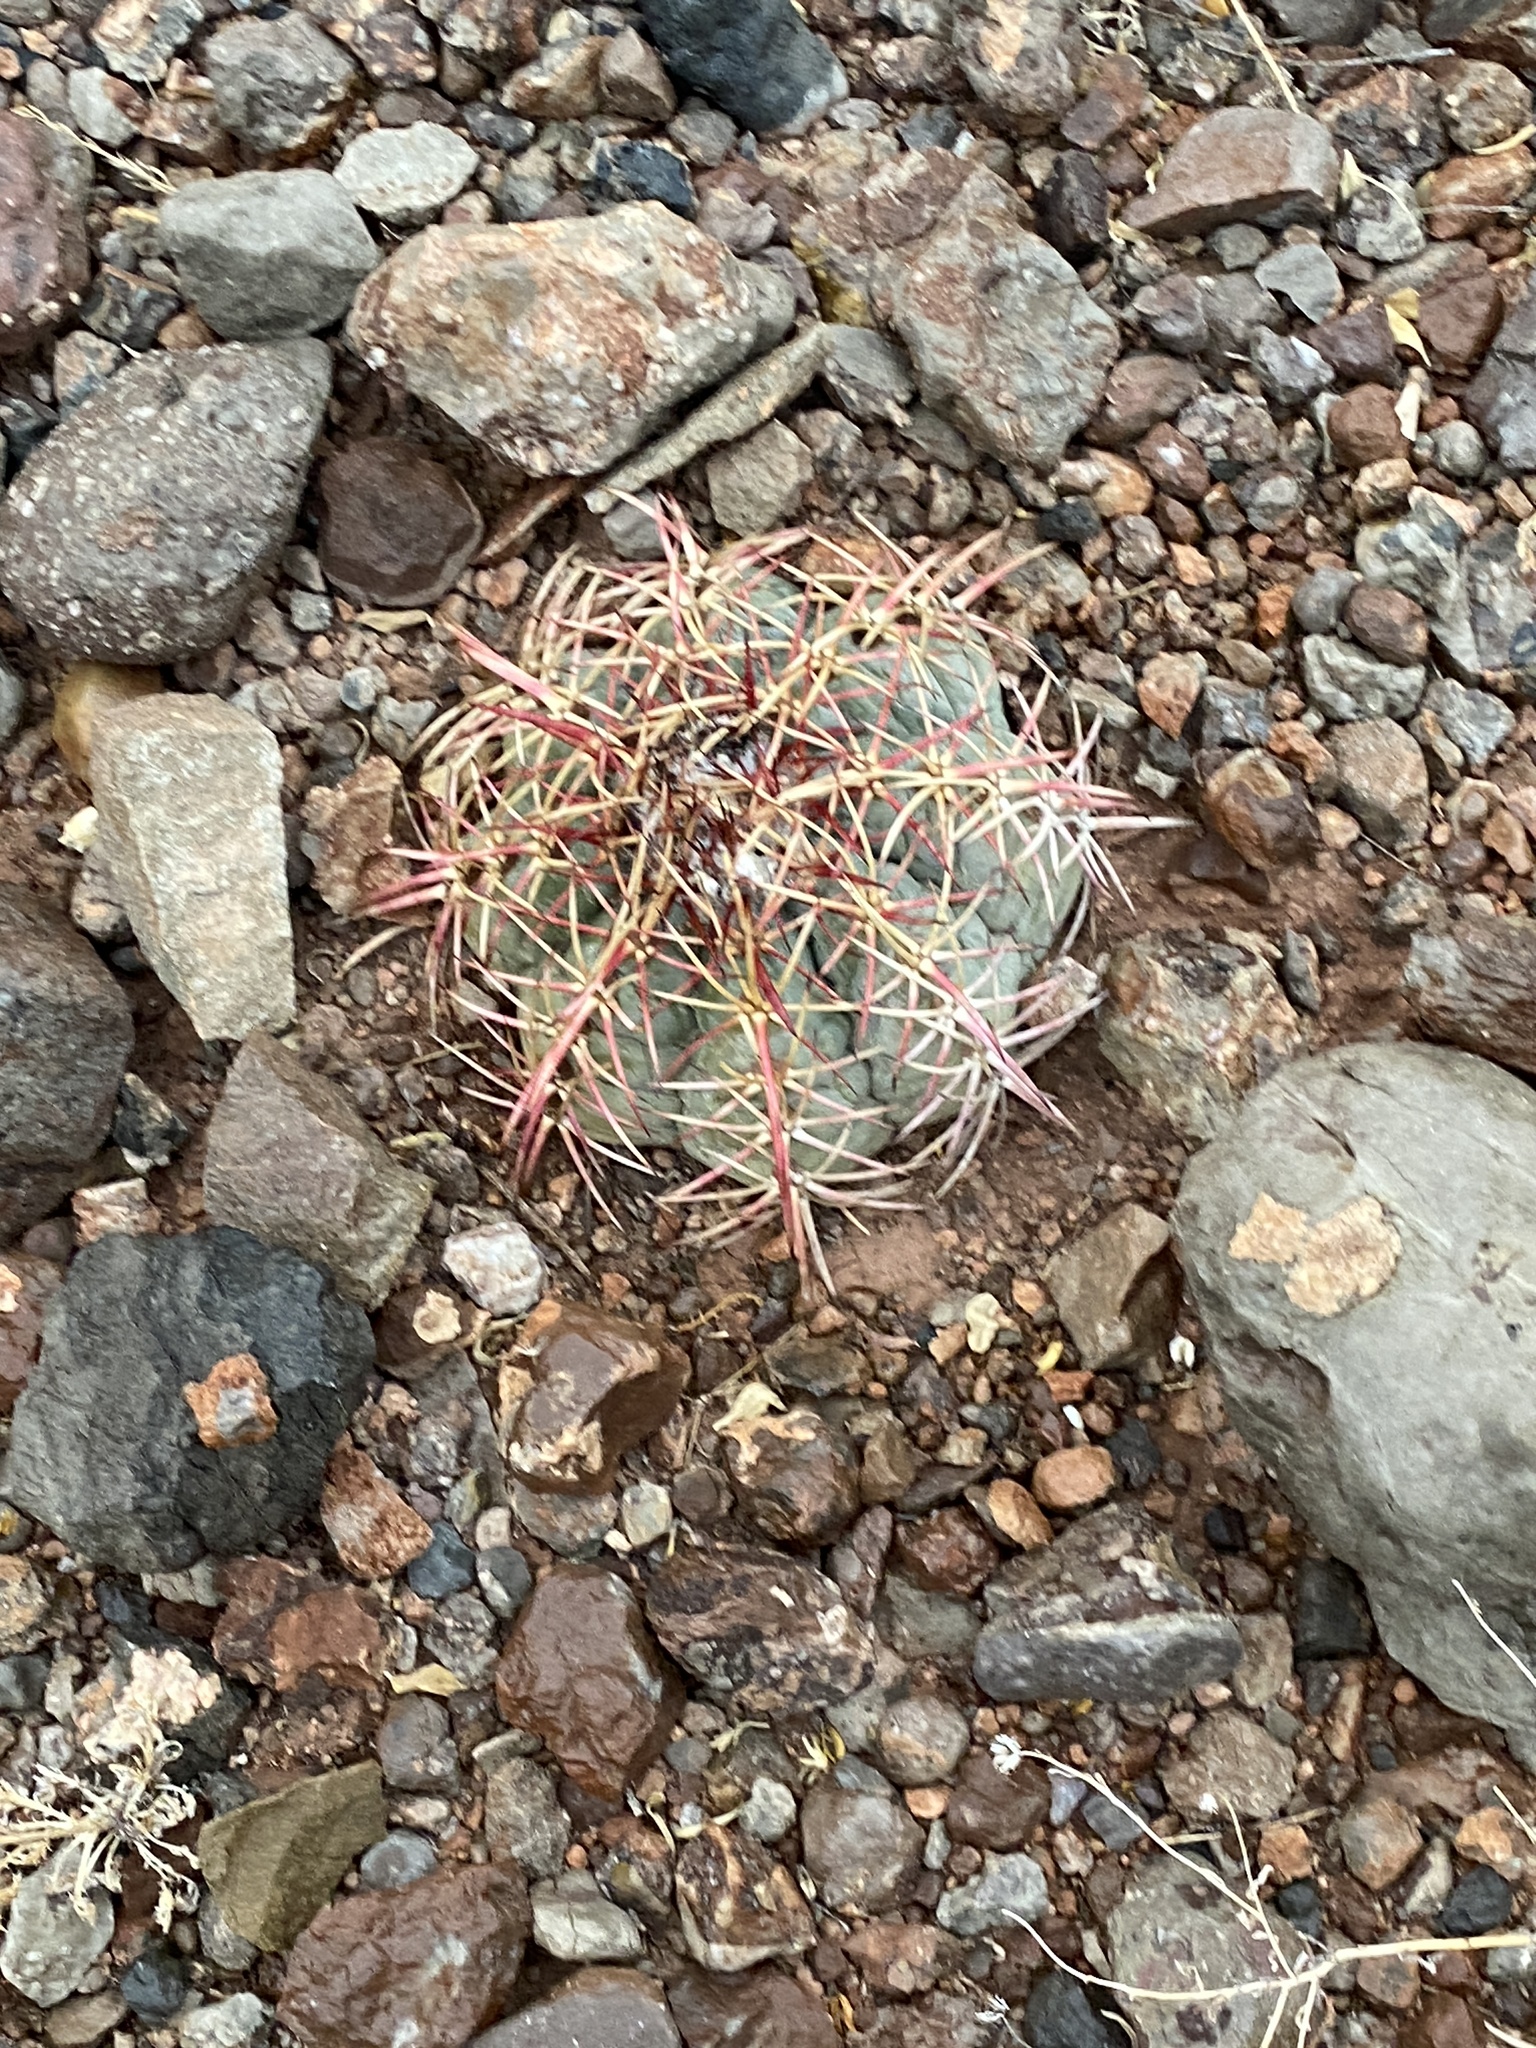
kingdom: Plantae
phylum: Tracheophyta
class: Magnoliopsida
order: Caryophyllales
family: Cactaceae
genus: Echinocactus
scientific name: Echinocactus horizonthalonius
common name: Devilshead
